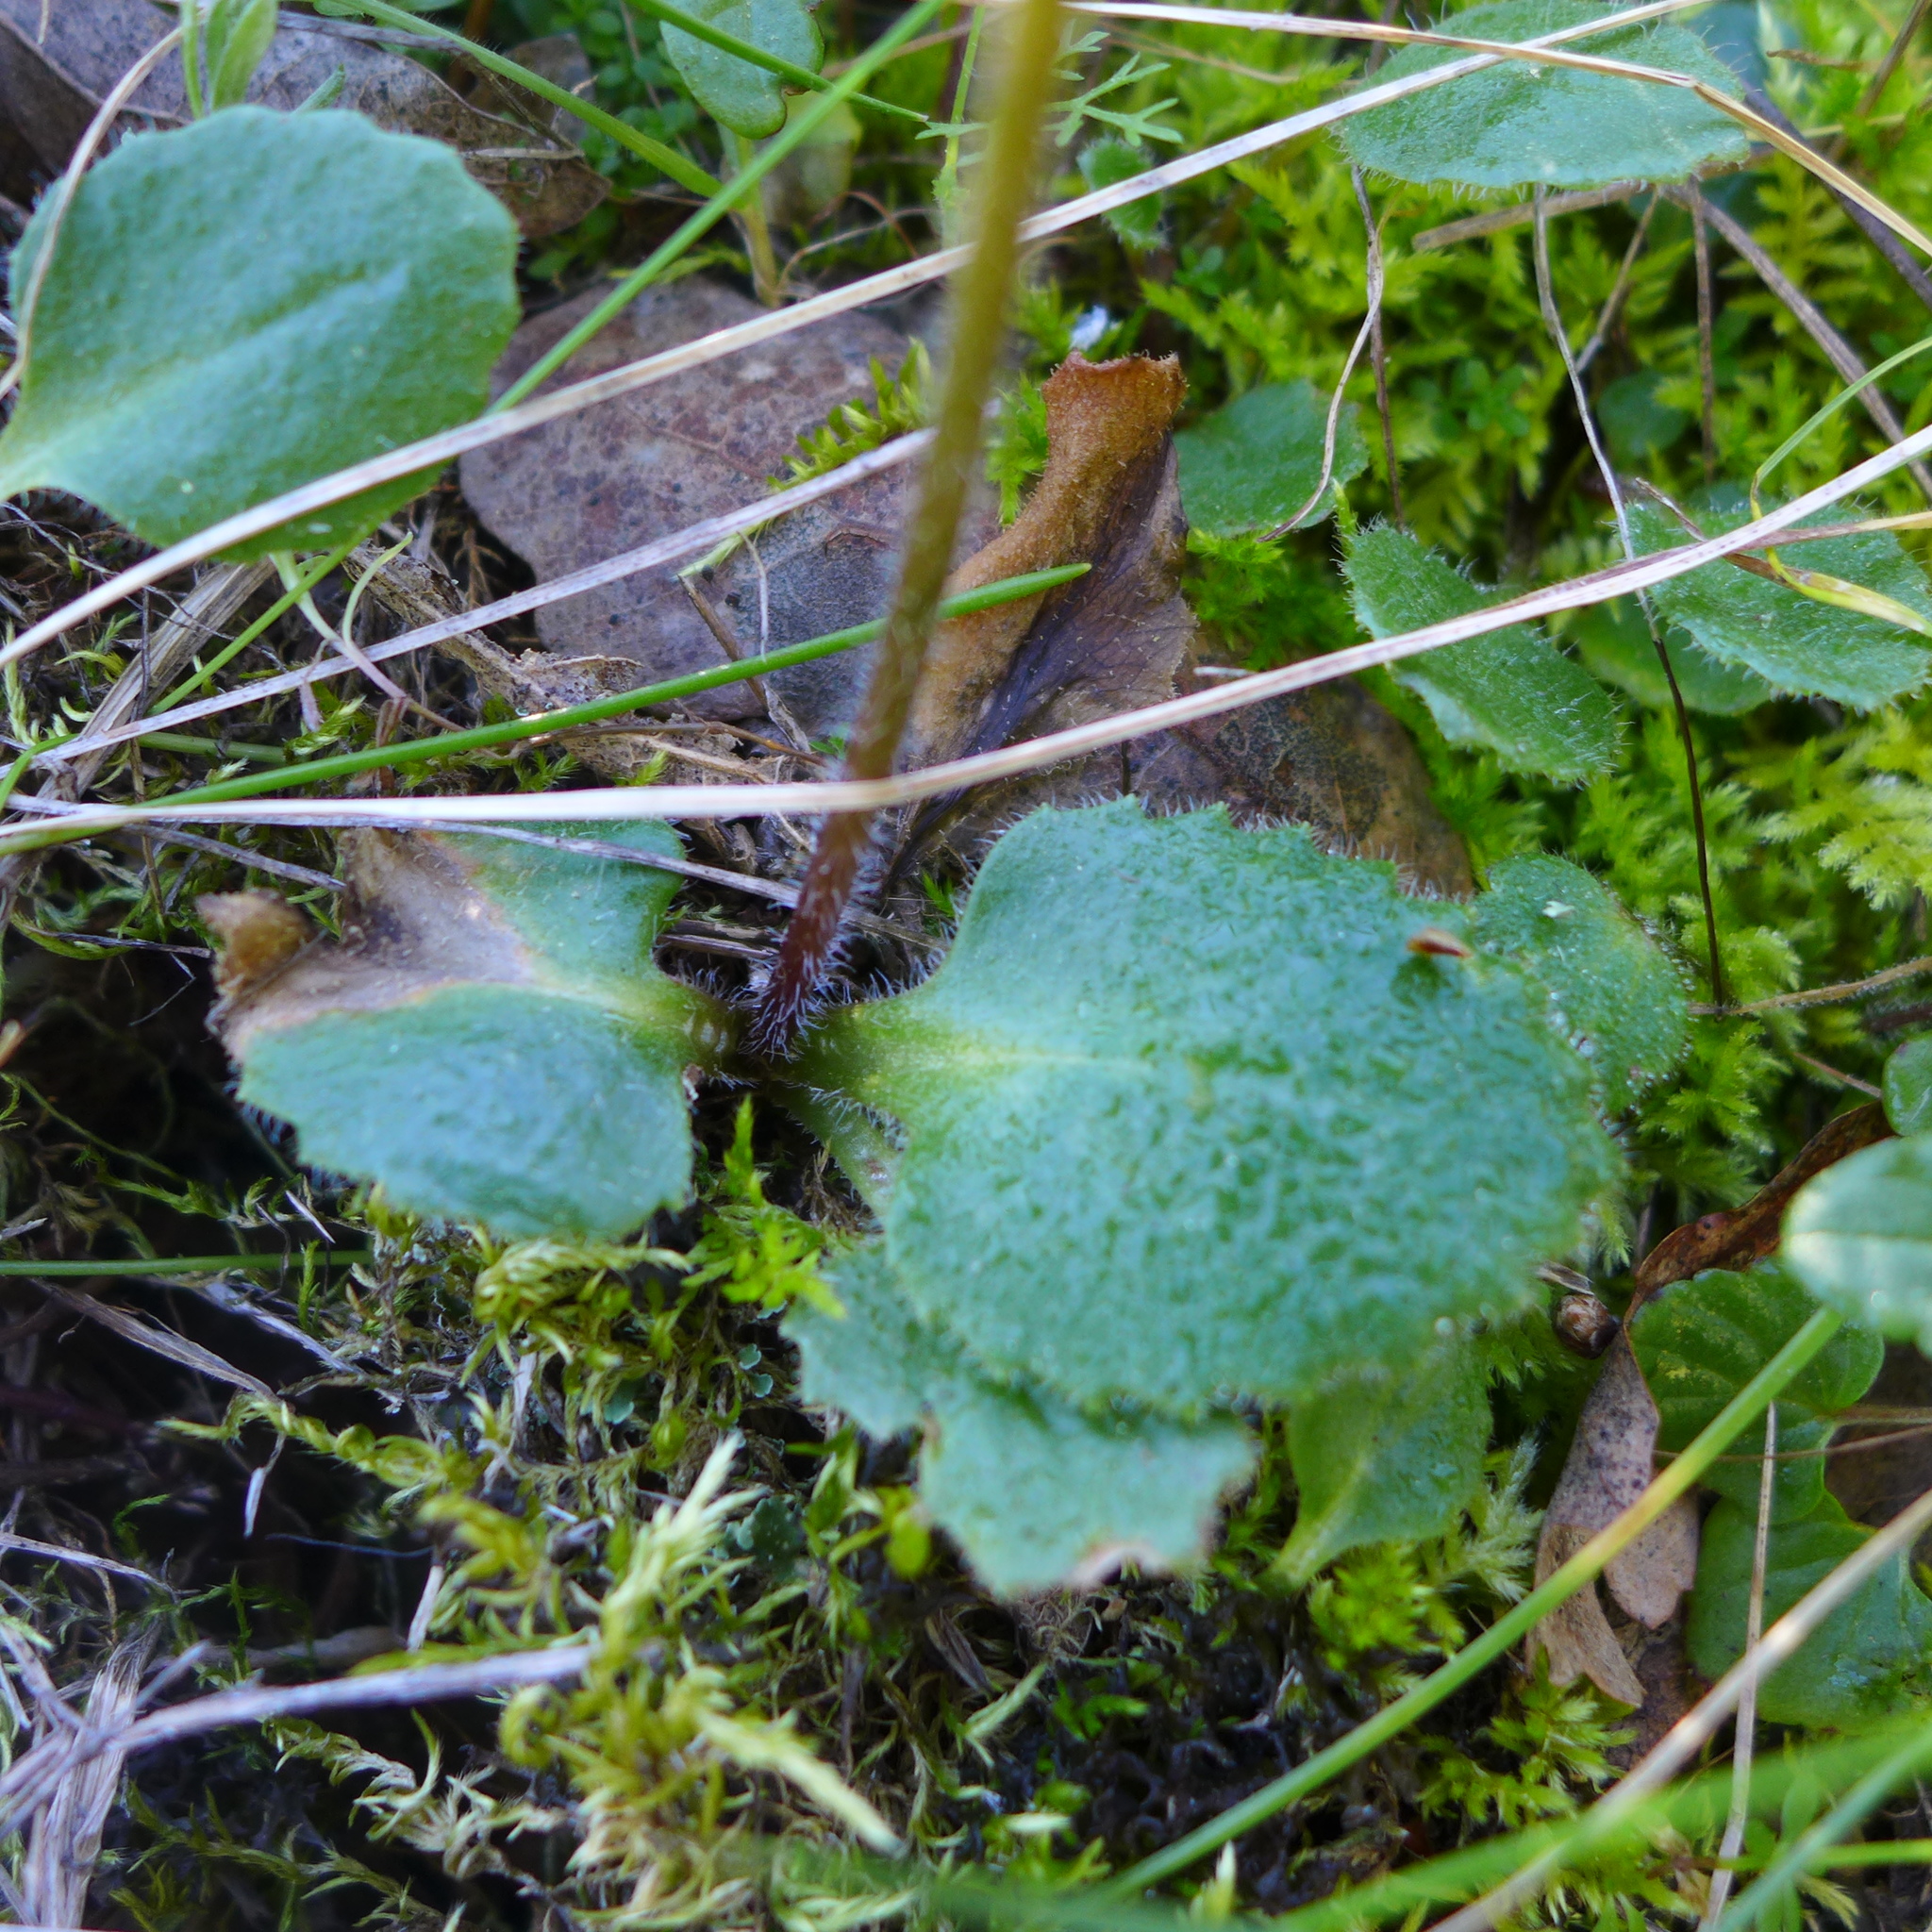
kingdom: Plantae
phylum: Tracheophyta
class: Magnoliopsida
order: Saxifragales
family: Saxifragaceae
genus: Micranthes
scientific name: Micranthes californica
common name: California saxifrage
